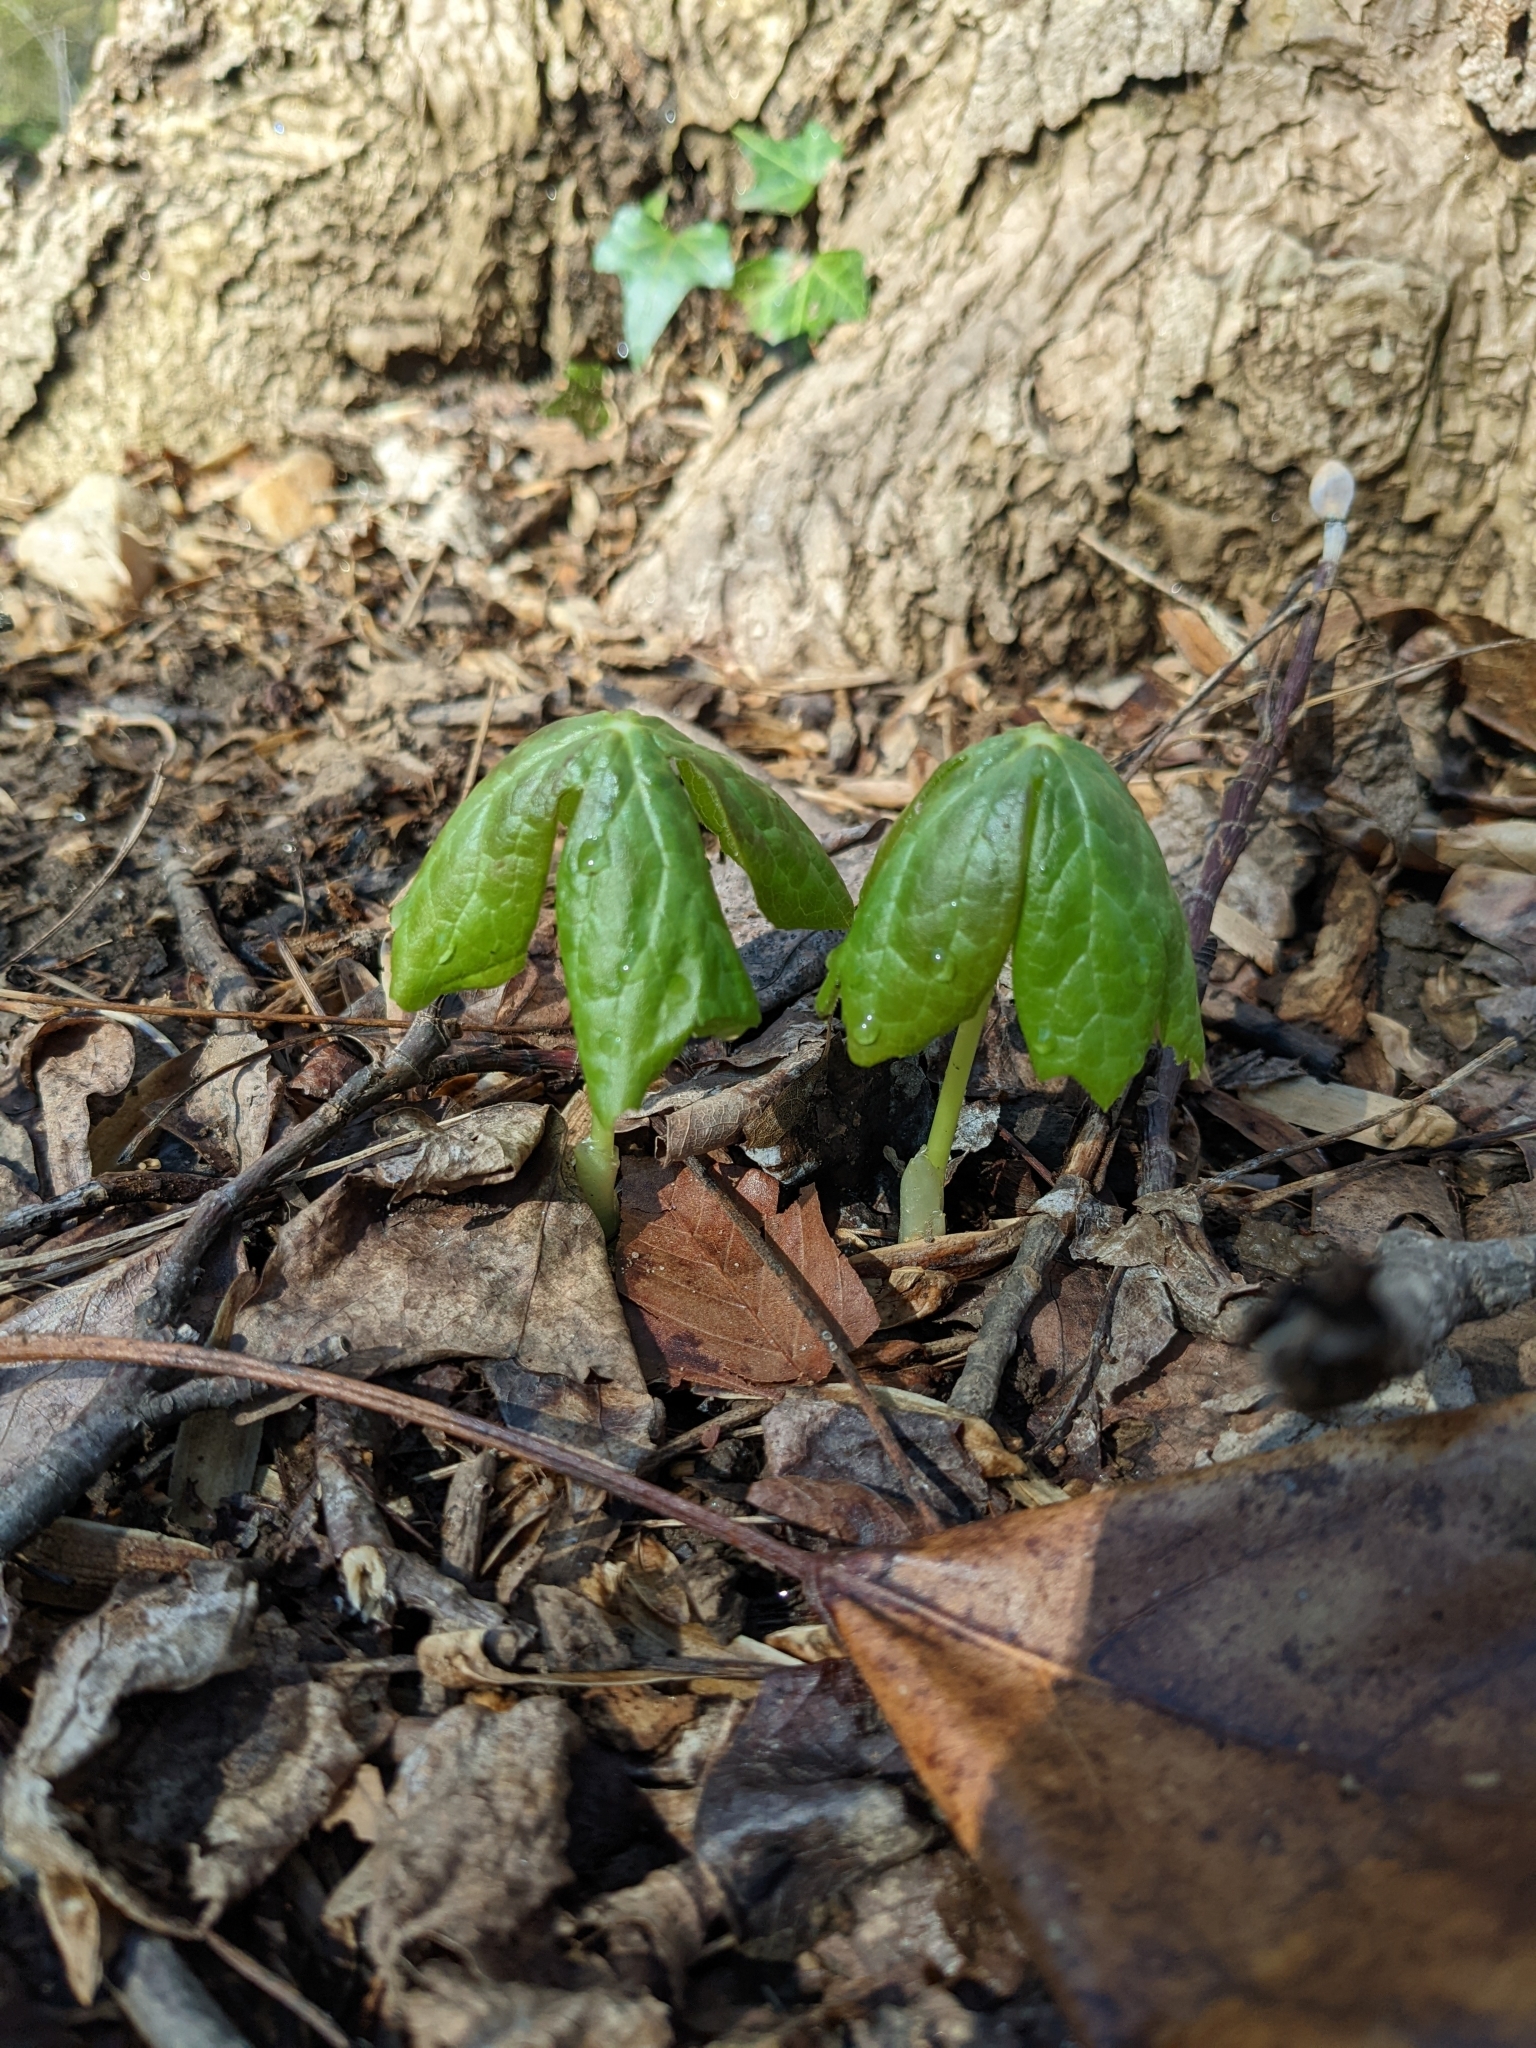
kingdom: Plantae
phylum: Tracheophyta
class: Magnoliopsida
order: Ranunculales
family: Berberidaceae
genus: Podophyllum
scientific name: Podophyllum peltatum
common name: Wild mandrake
